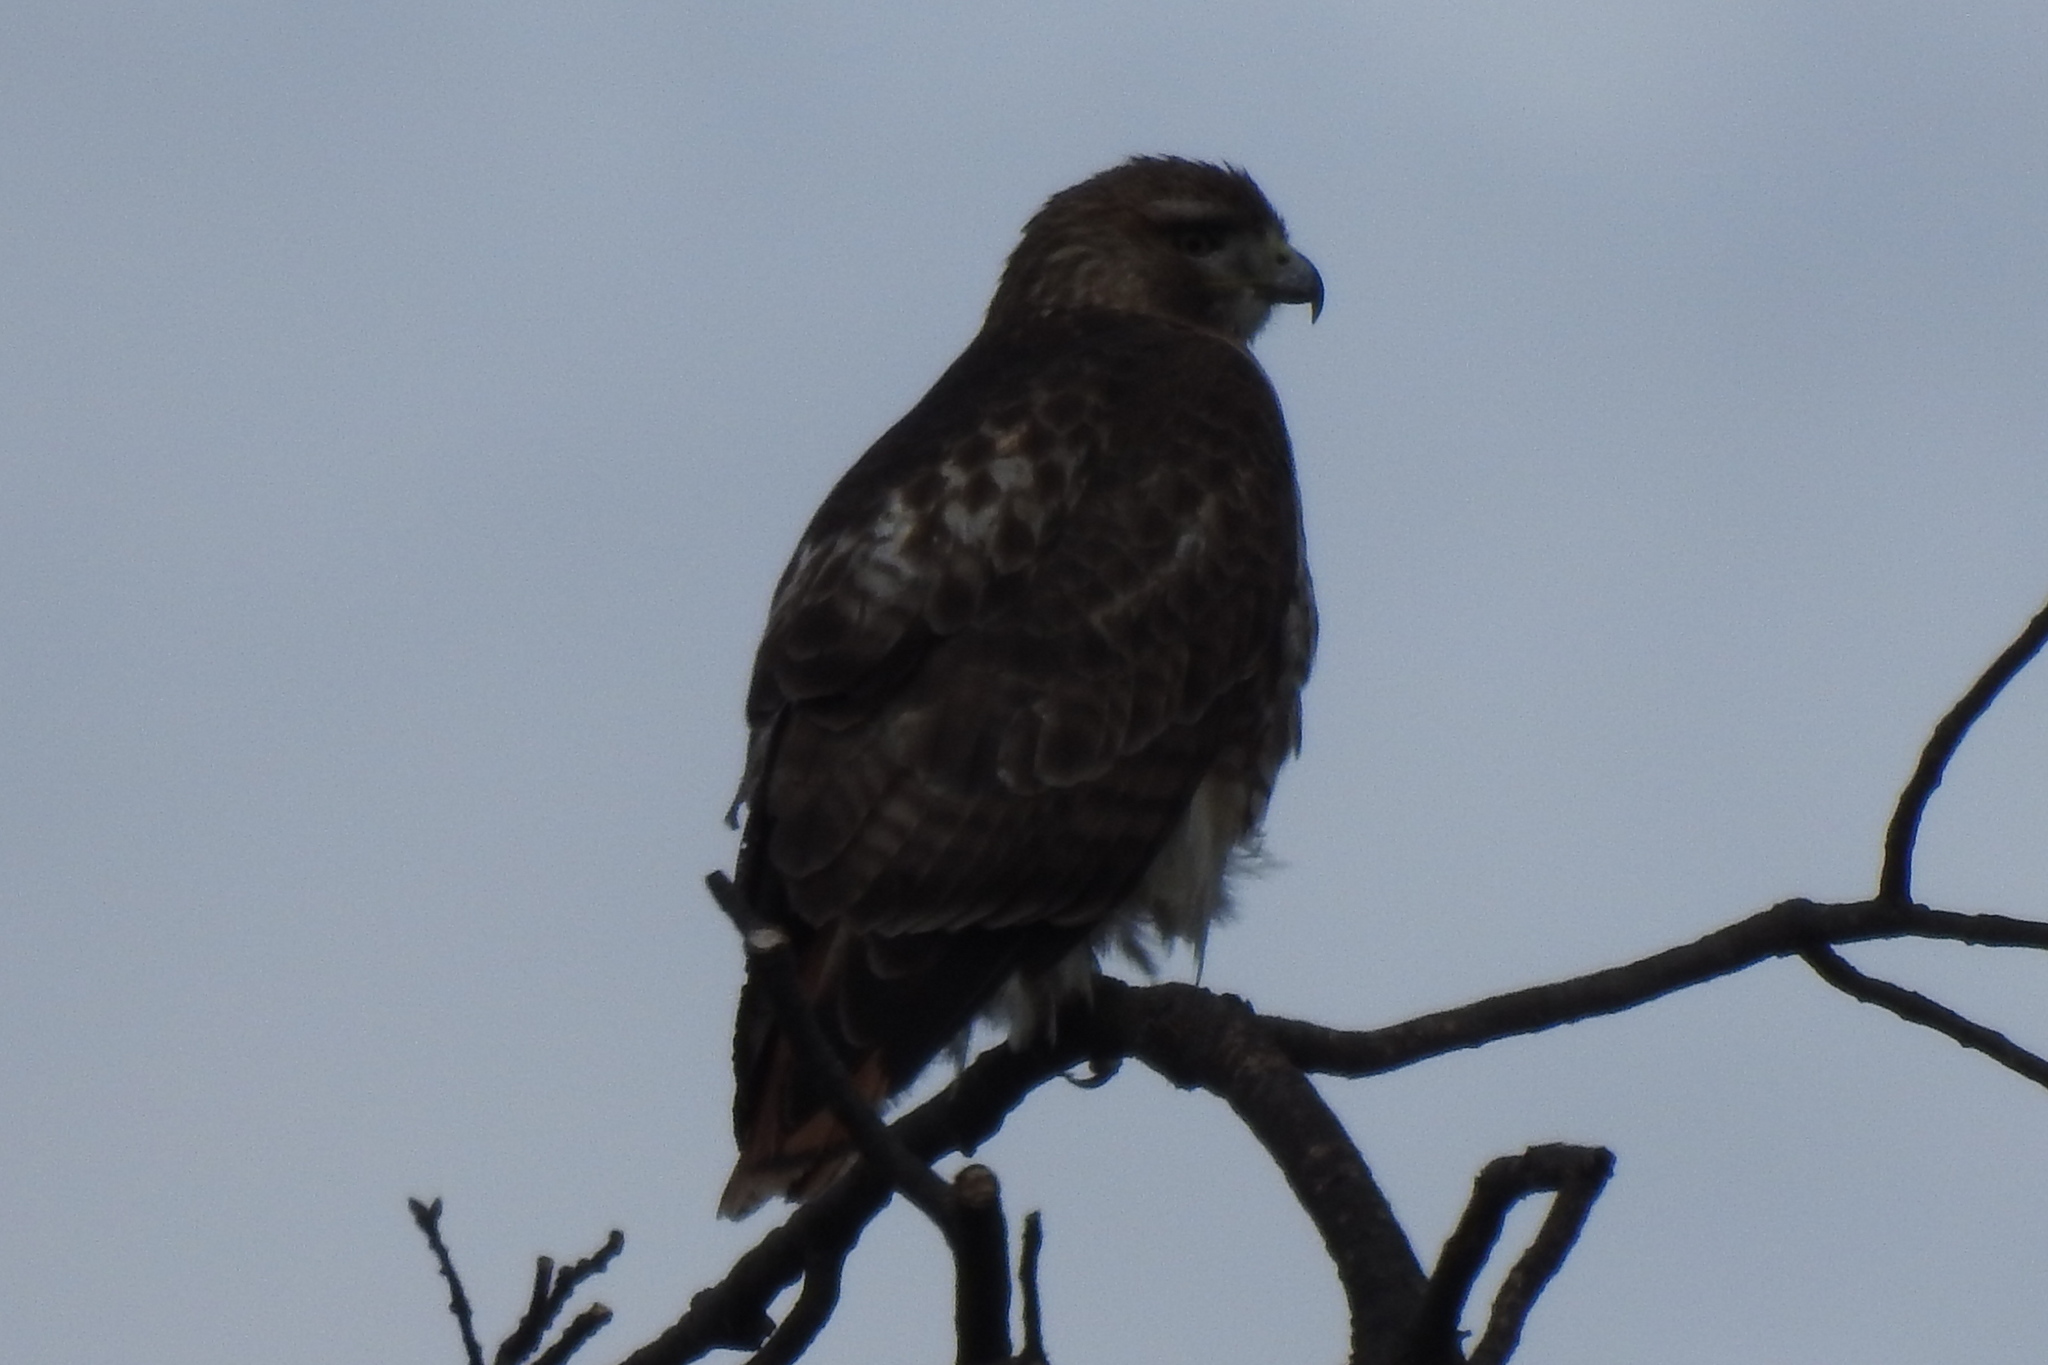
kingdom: Animalia
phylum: Chordata
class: Aves
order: Accipitriformes
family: Accipitridae
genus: Buteo
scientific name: Buteo jamaicensis
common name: Red-tailed hawk
